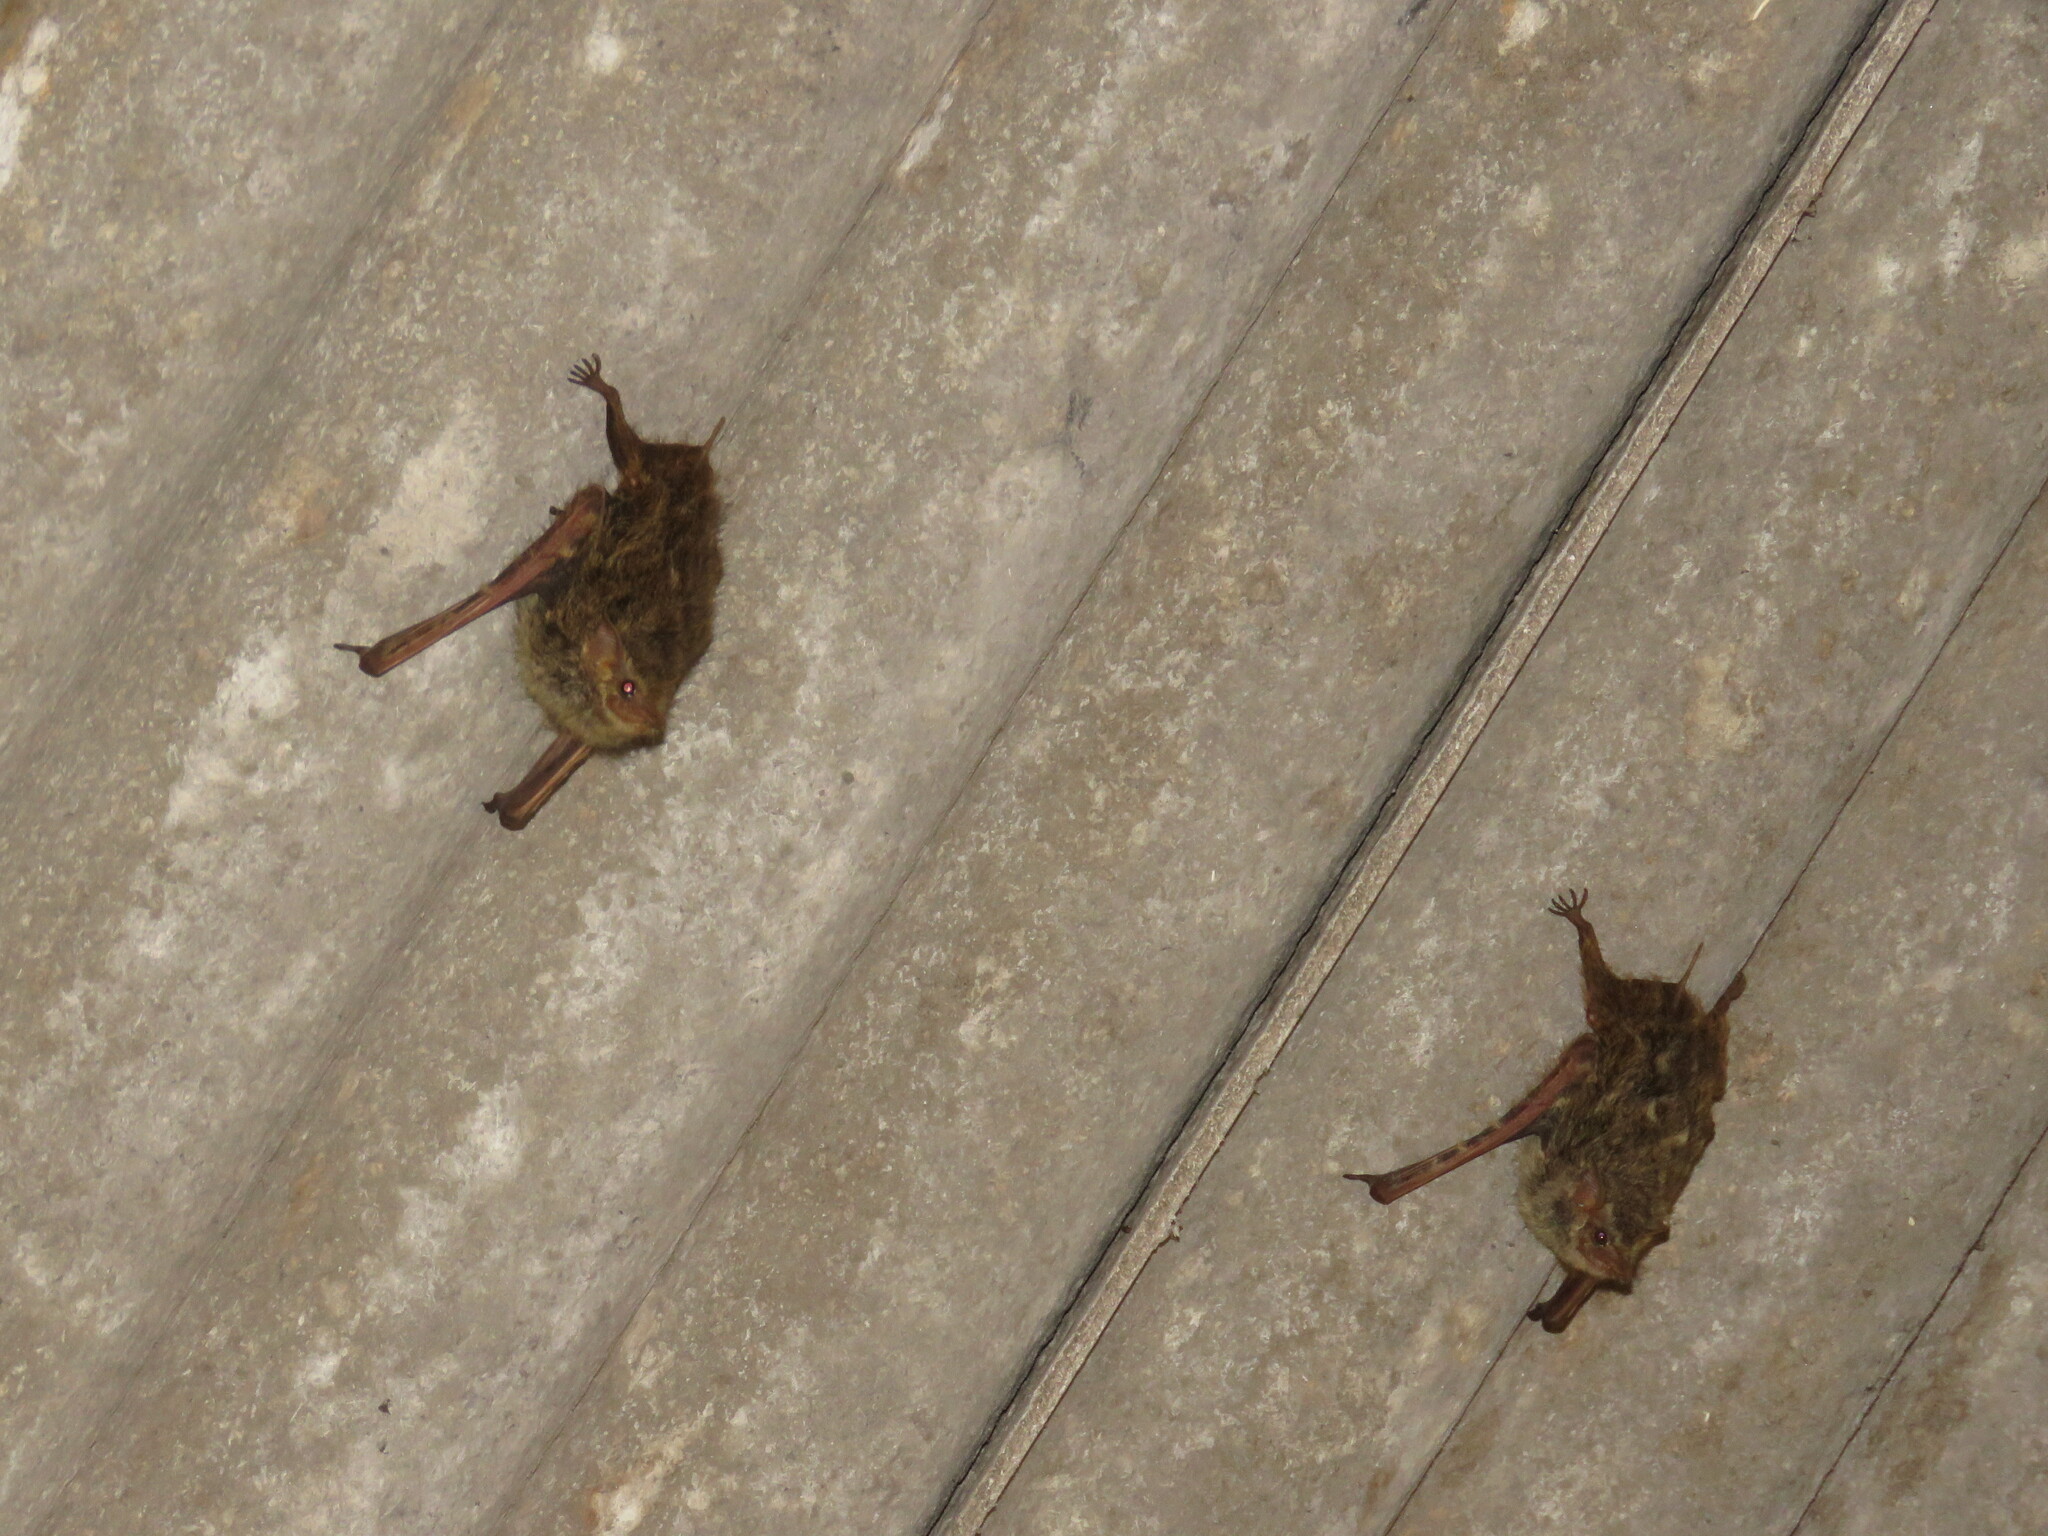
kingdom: Animalia
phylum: Chordata
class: Mammalia
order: Chiroptera
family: Emballonuridae
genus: Rhynchonycteris
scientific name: Rhynchonycteris naso
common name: Proboscis bat
